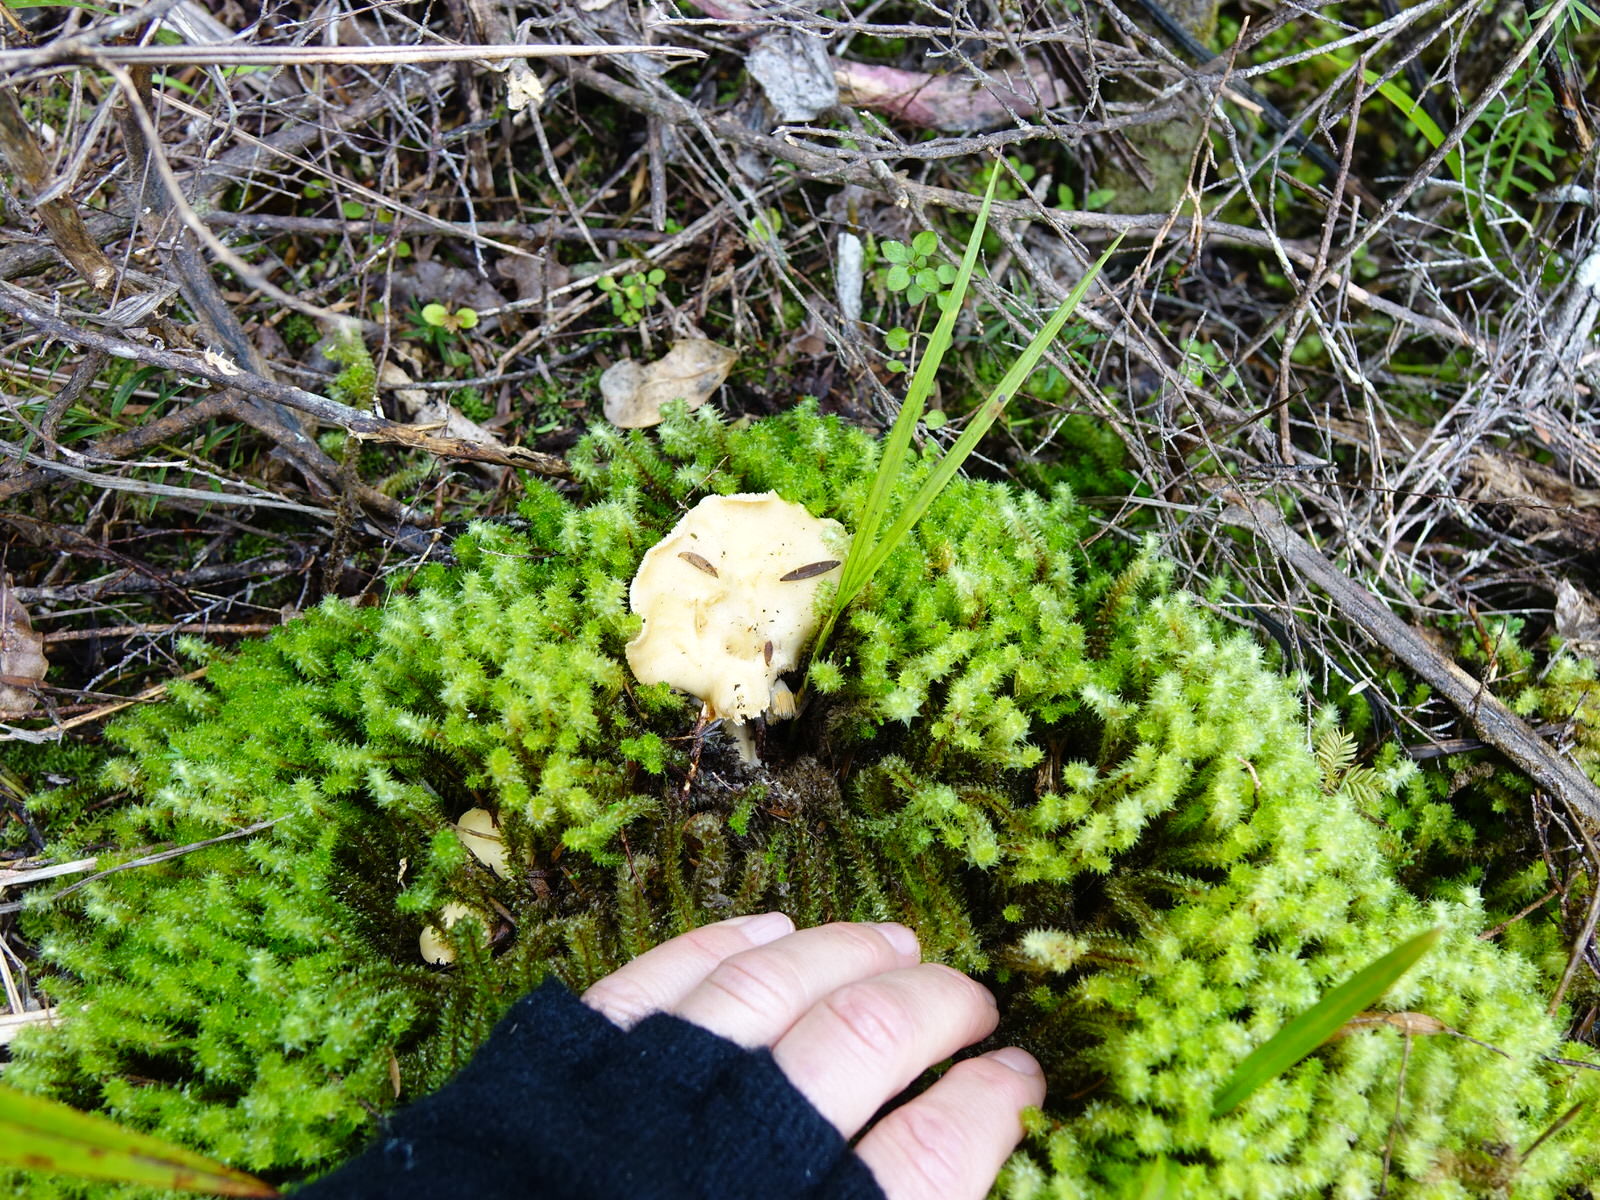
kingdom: Fungi
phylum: Basidiomycota
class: Agaricomycetes
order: Cantharellales
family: Hydnaceae
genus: Hydnum
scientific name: Hydnum ambustum
